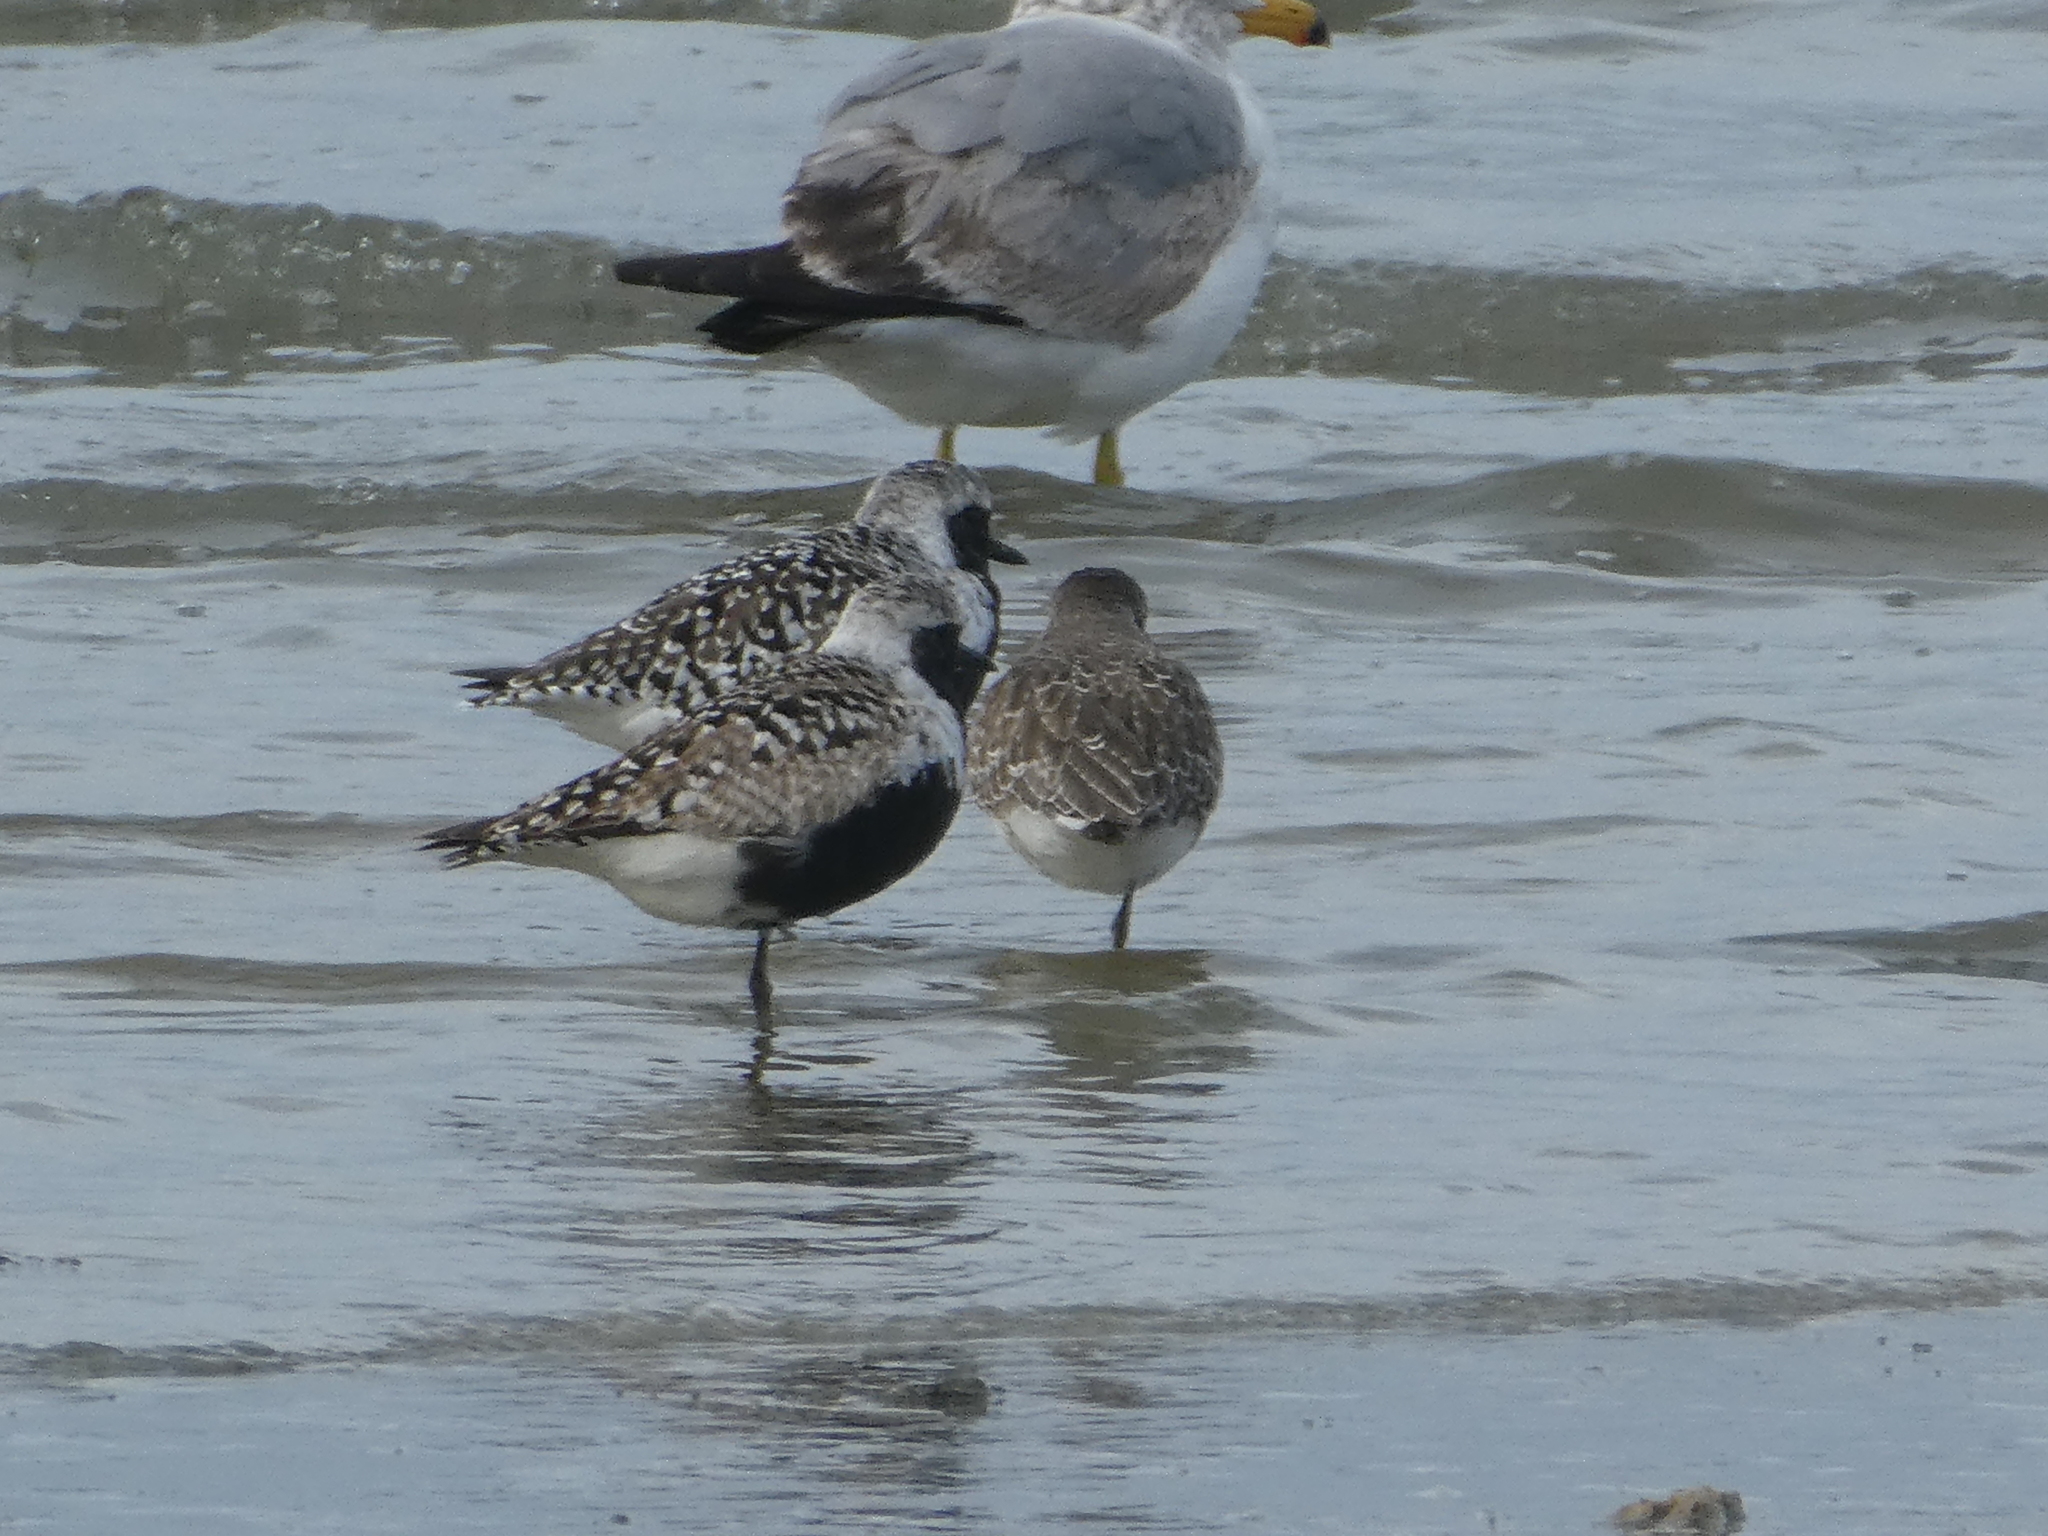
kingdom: Animalia
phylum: Chordata
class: Aves
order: Charadriiformes
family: Charadriidae
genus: Pluvialis
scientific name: Pluvialis squatarola
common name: Grey plover
